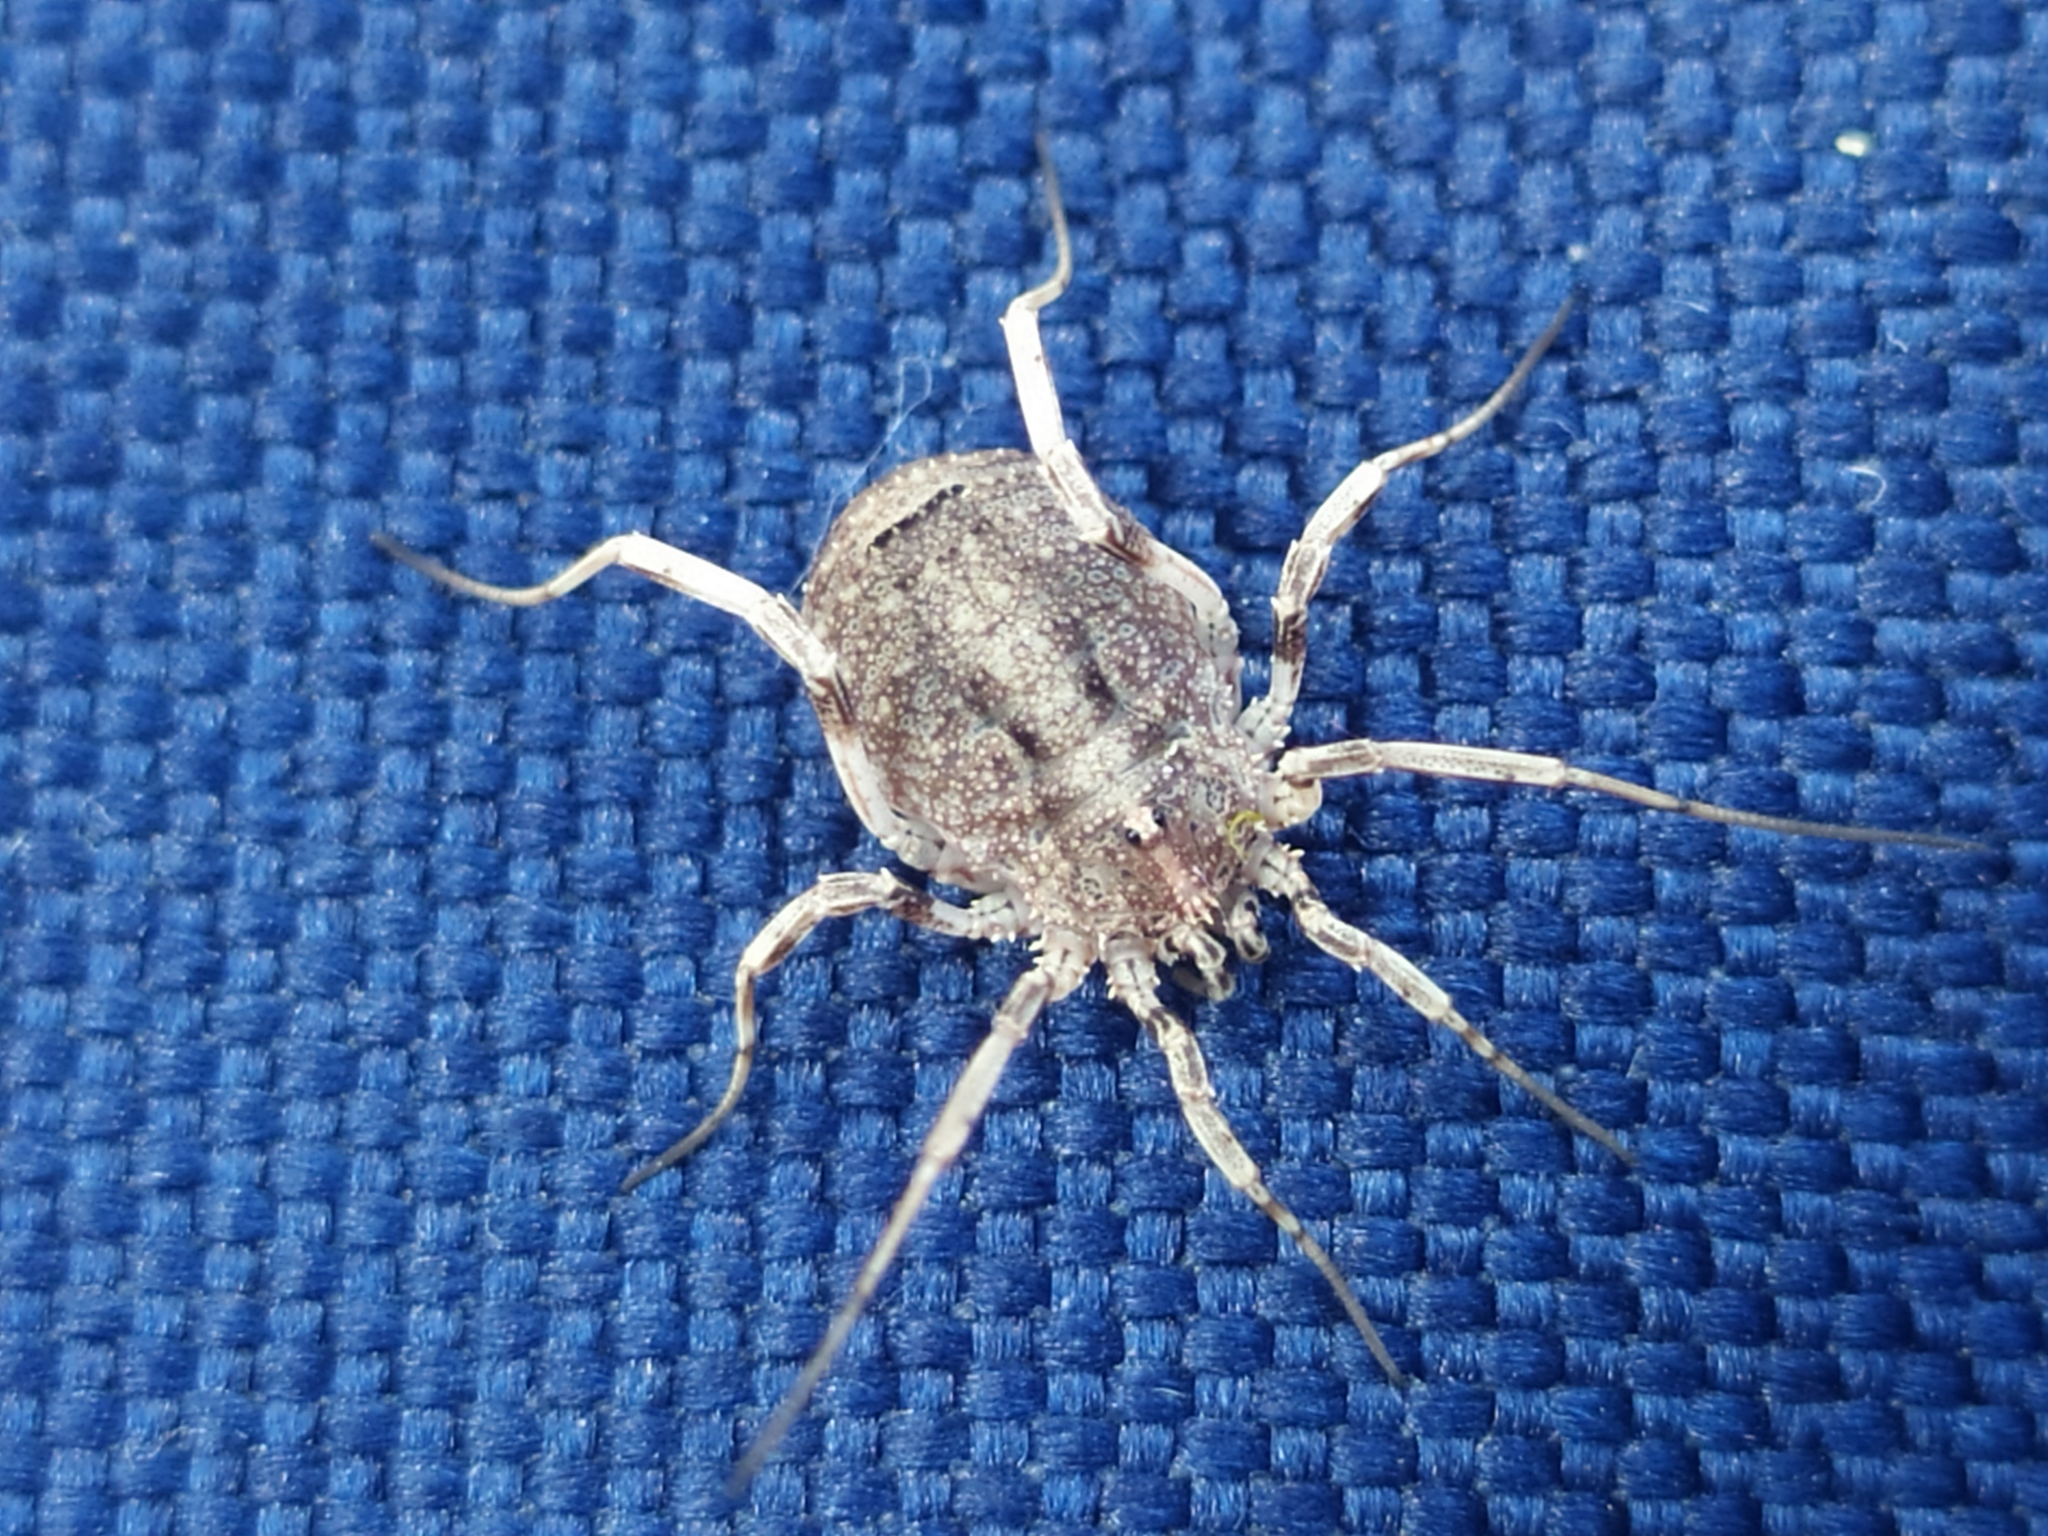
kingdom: Animalia
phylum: Arthropoda
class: Arachnida
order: Opiliones
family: Phalangiidae
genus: Odiellus
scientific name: Odiellus spinosus
